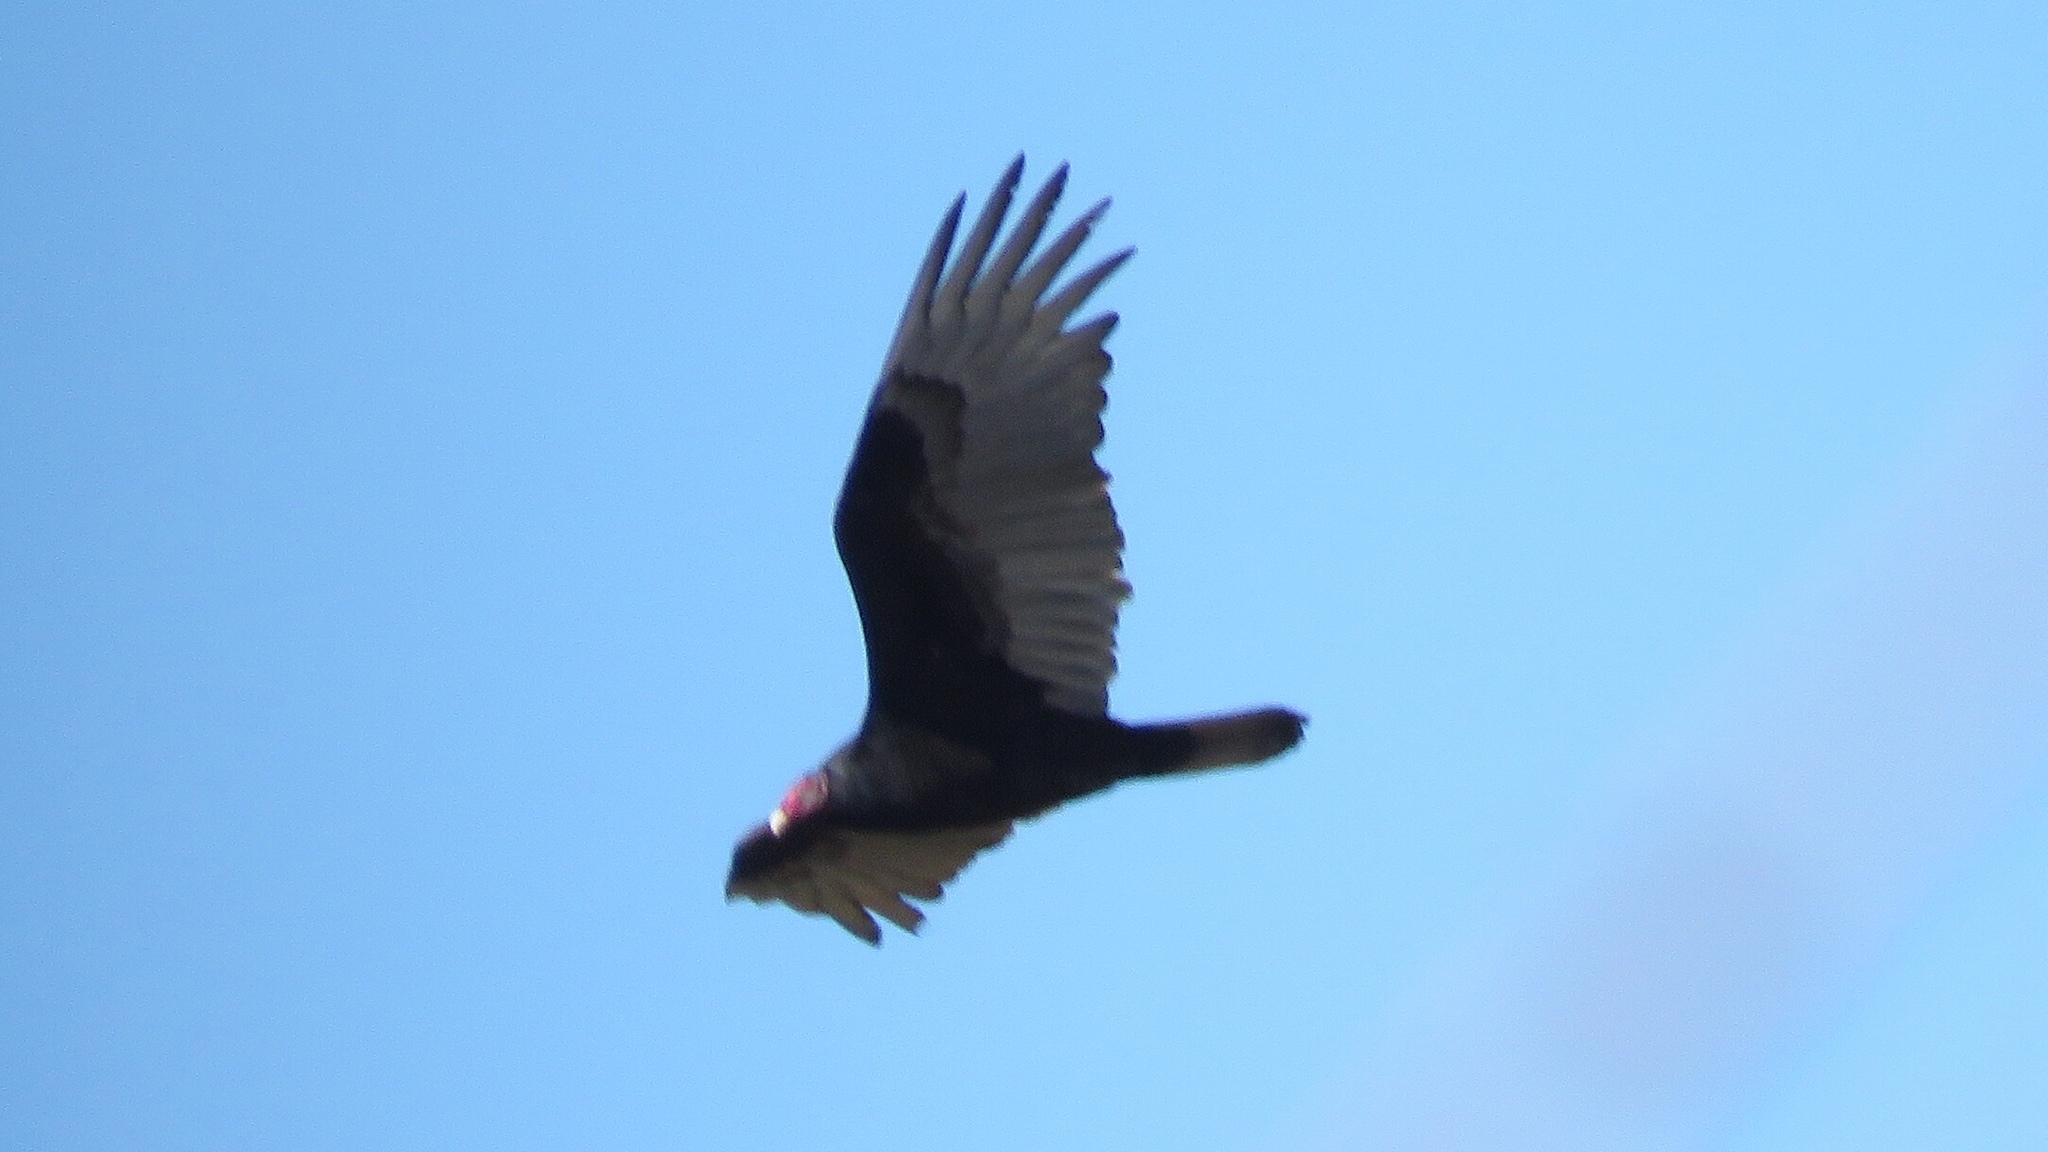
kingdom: Animalia
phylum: Chordata
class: Aves
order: Accipitriformes
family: Cathartidae
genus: Cathartes
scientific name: Cathartes aura
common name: Turkey vulture
